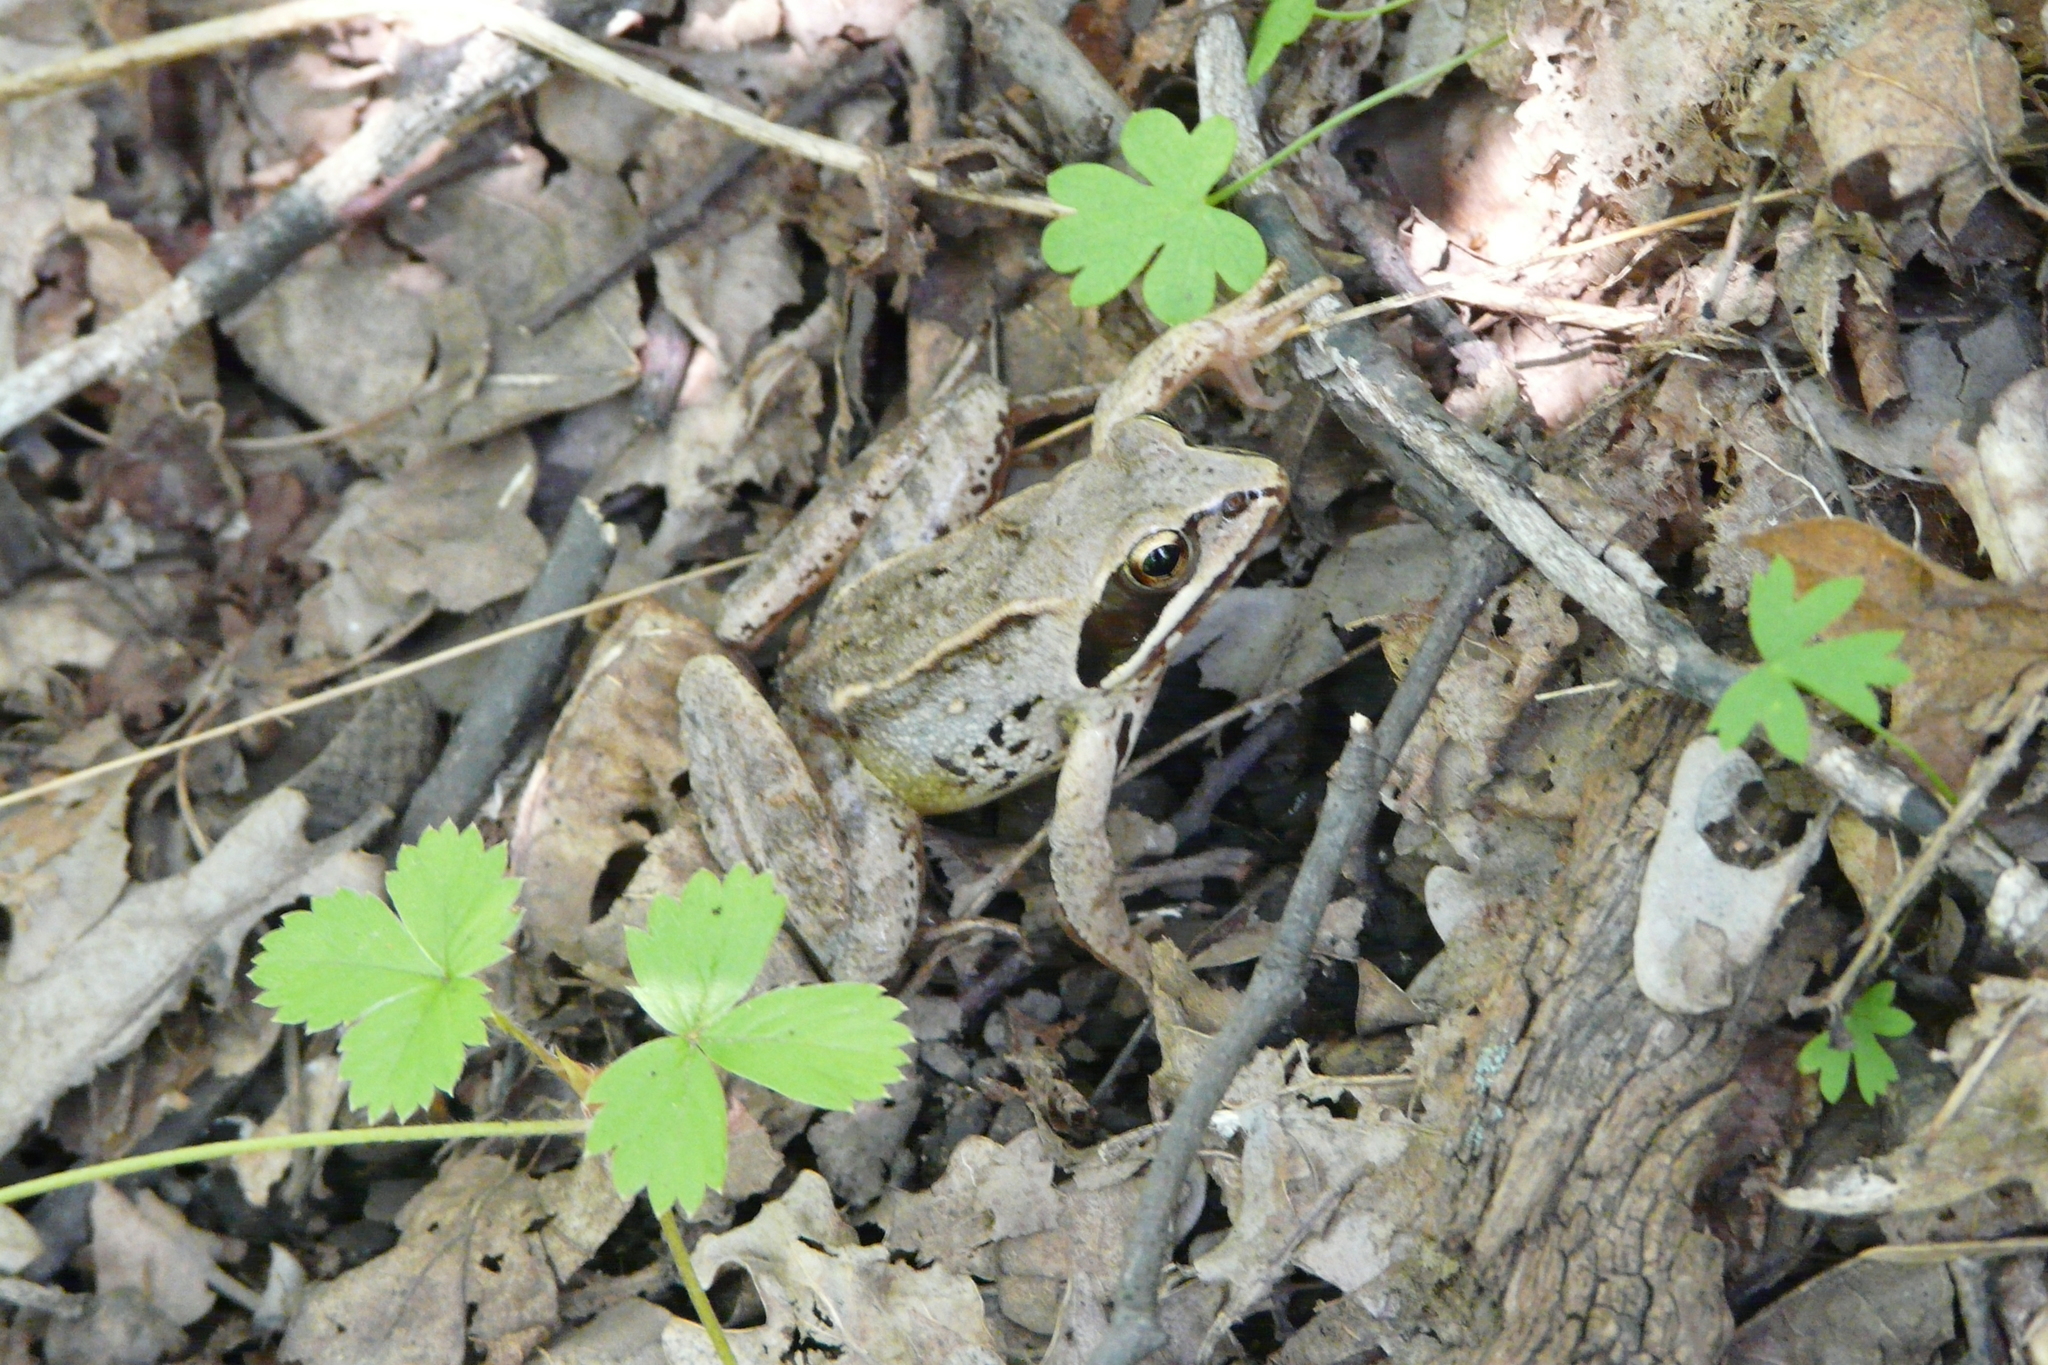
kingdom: Animalia
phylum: Chordata
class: Amphibia
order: Anura
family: Ranidae
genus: Rana
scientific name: Rana arvalis
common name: Moor frog
